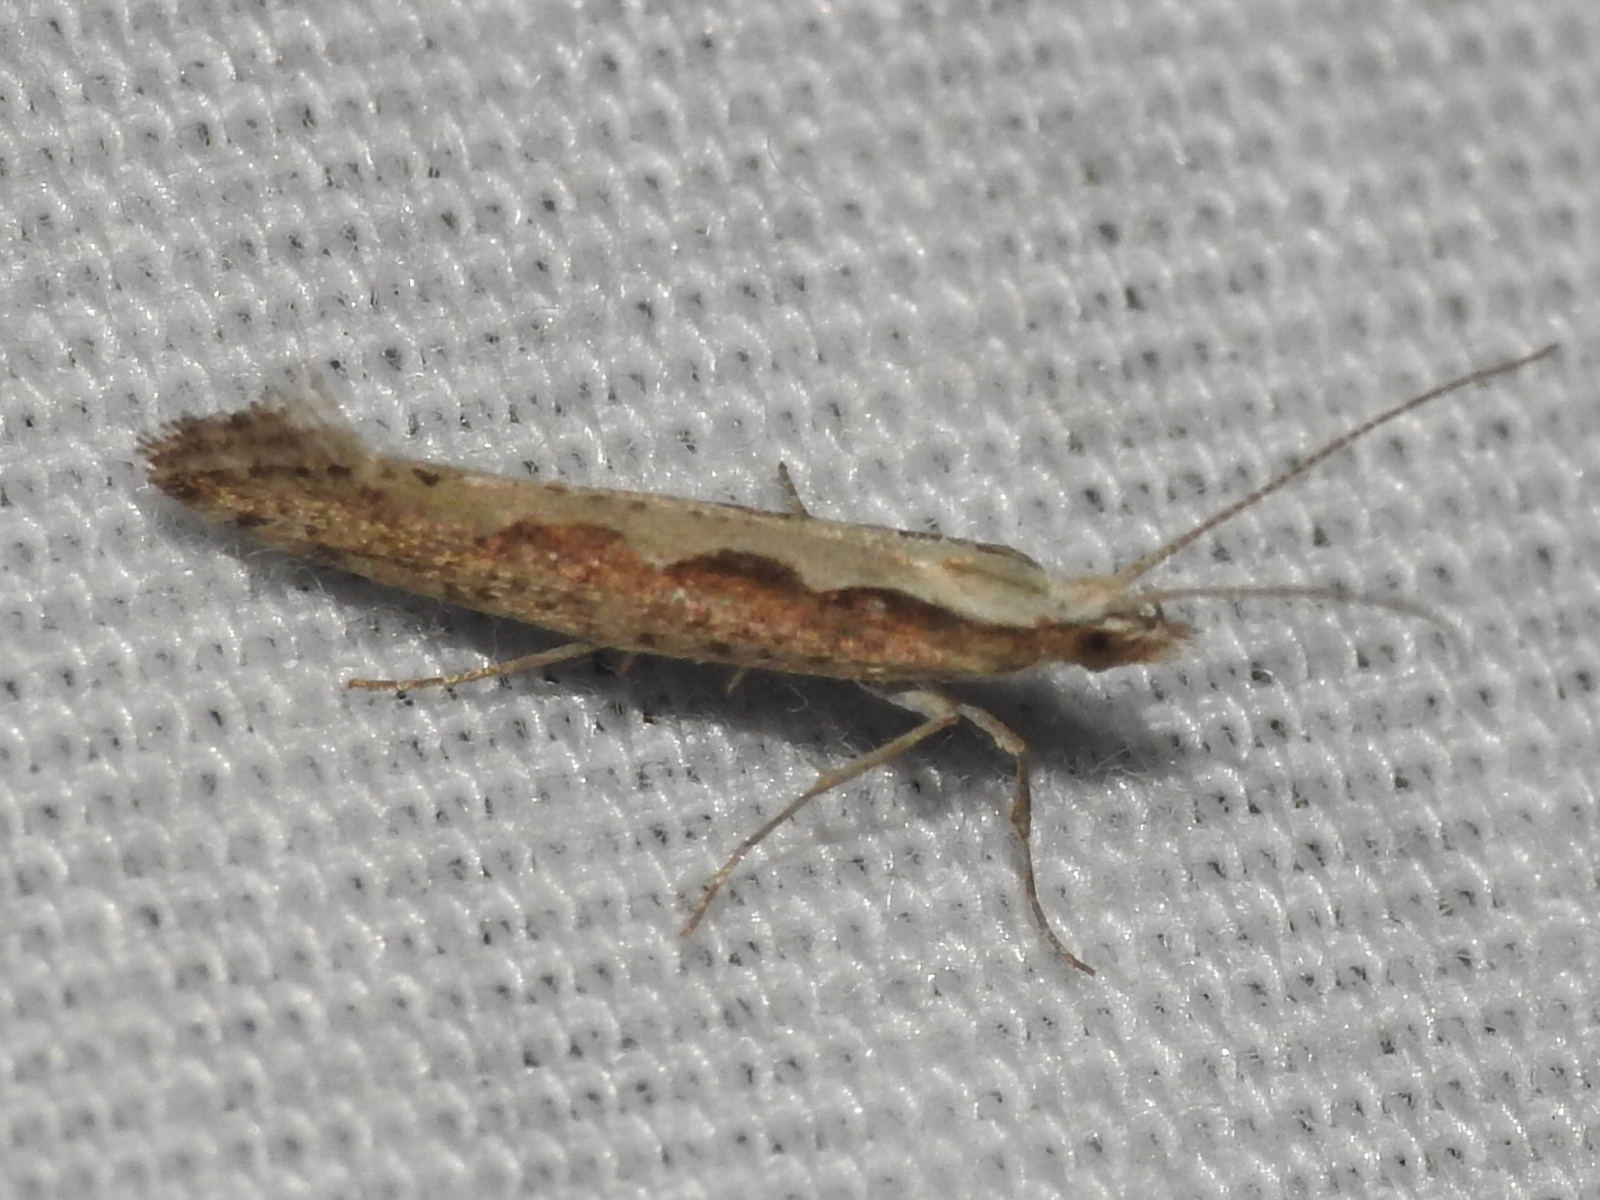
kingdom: Animalia
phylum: Arthropoda
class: Insecta
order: Lepidoptera
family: Plutellidae
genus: Plutella
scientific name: Plutella xylostella
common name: Diamond-back moth
